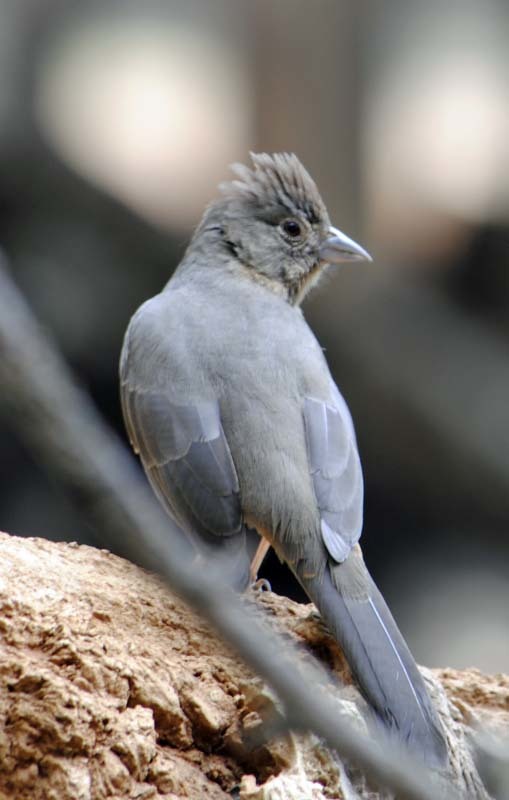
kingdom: Animalia
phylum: Chordata
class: Aves
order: Passeriformes
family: Passerellidae
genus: Melozone
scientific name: Melozone fusca
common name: Canyon towhee
